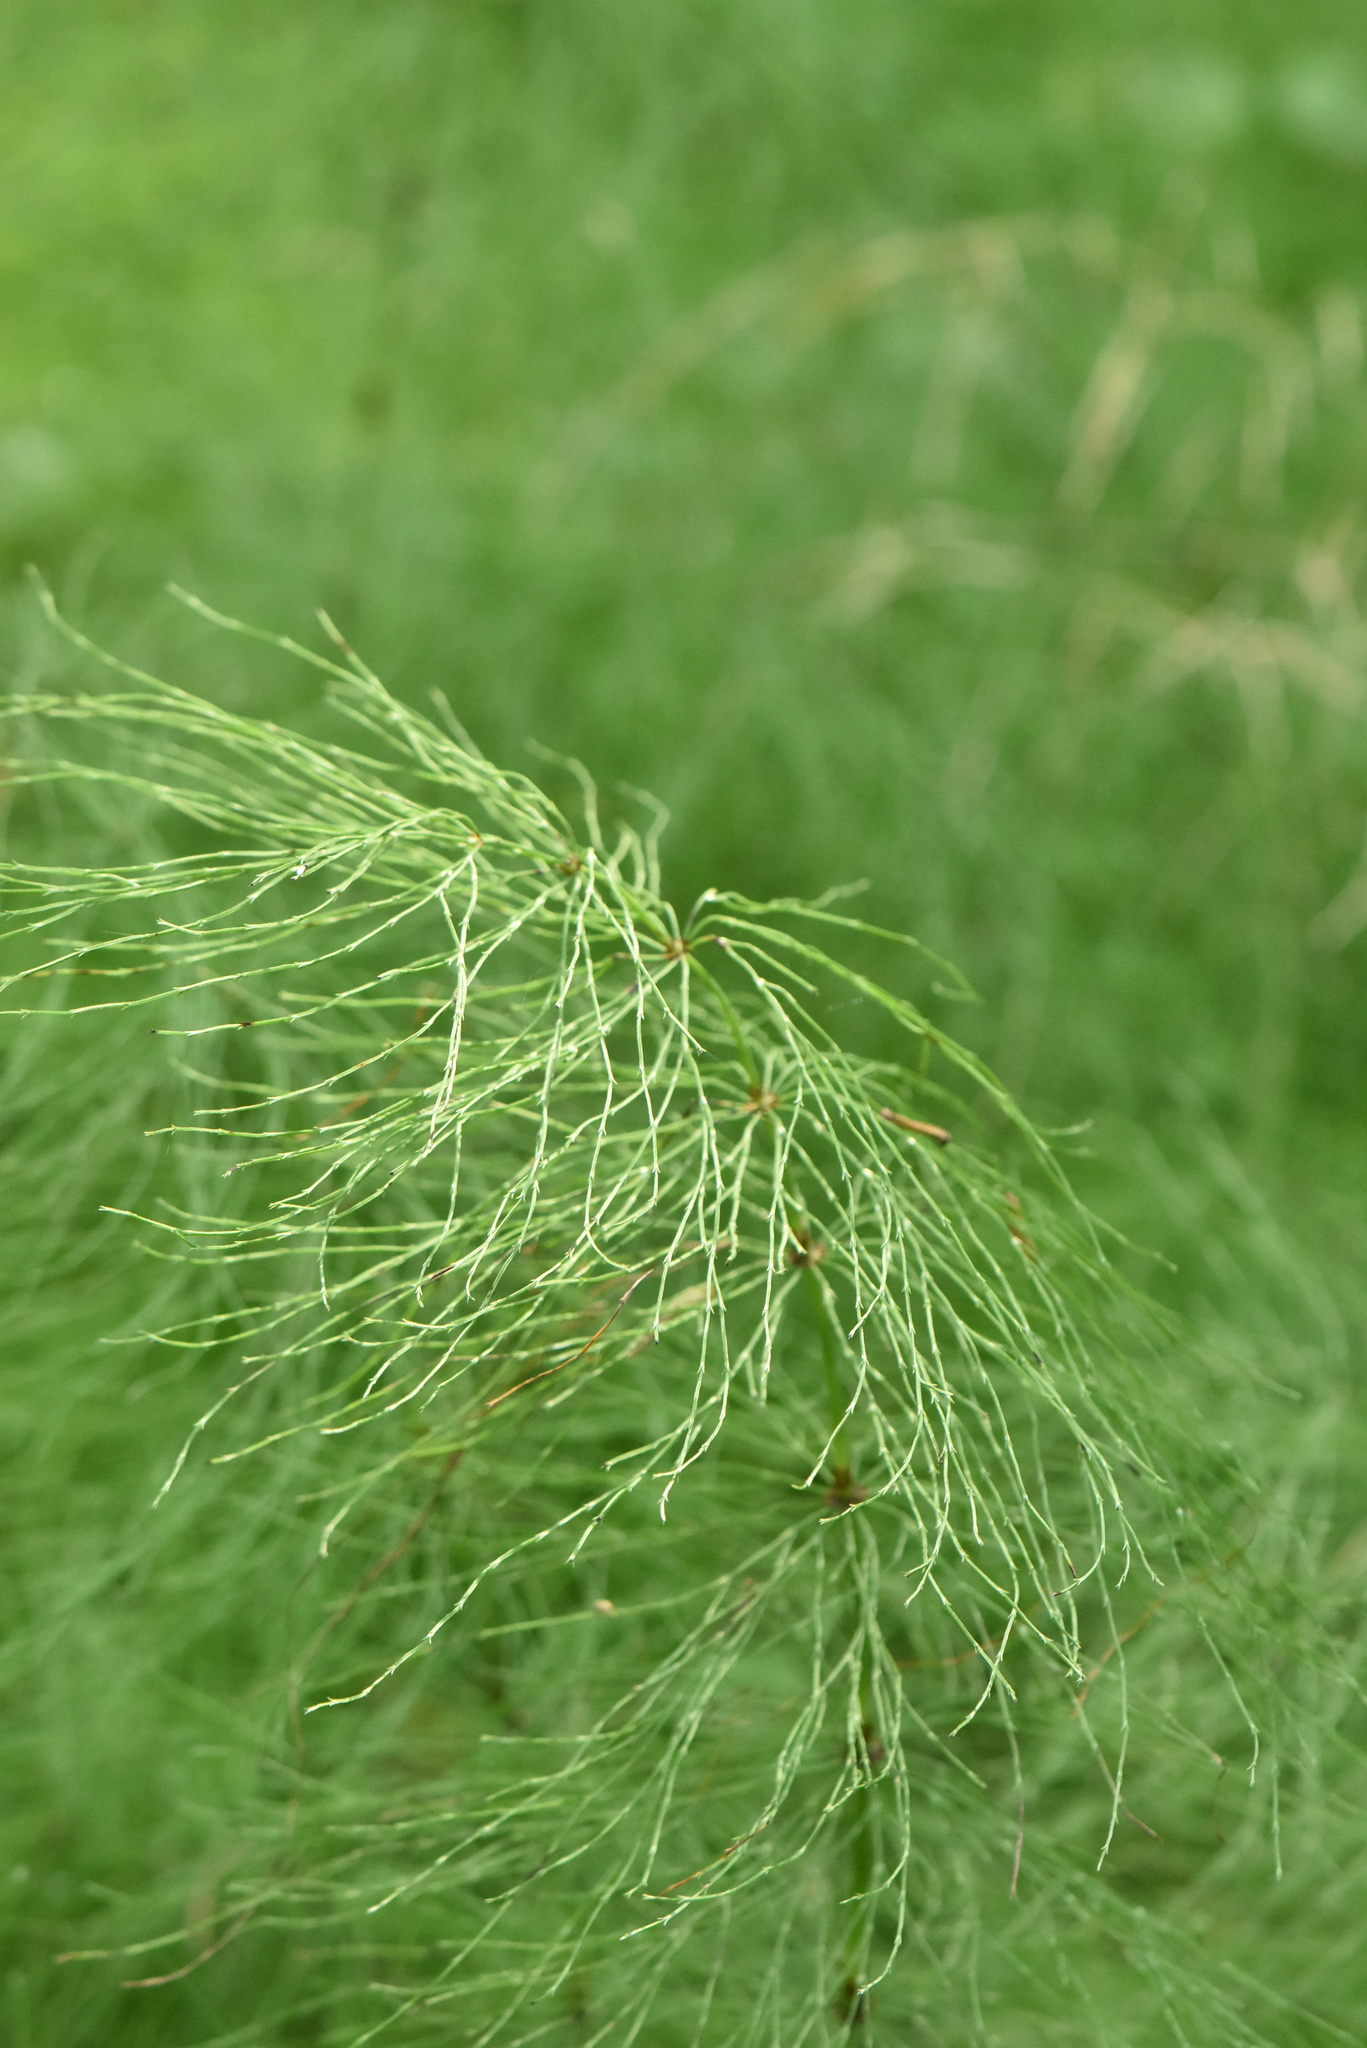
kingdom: Plantae
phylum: Tracheophyta
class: Polypodiopsida
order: Equisetales
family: Equisetaceae
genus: Equisetum
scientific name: Equisetum sylvaticum
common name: Wood horsetail
